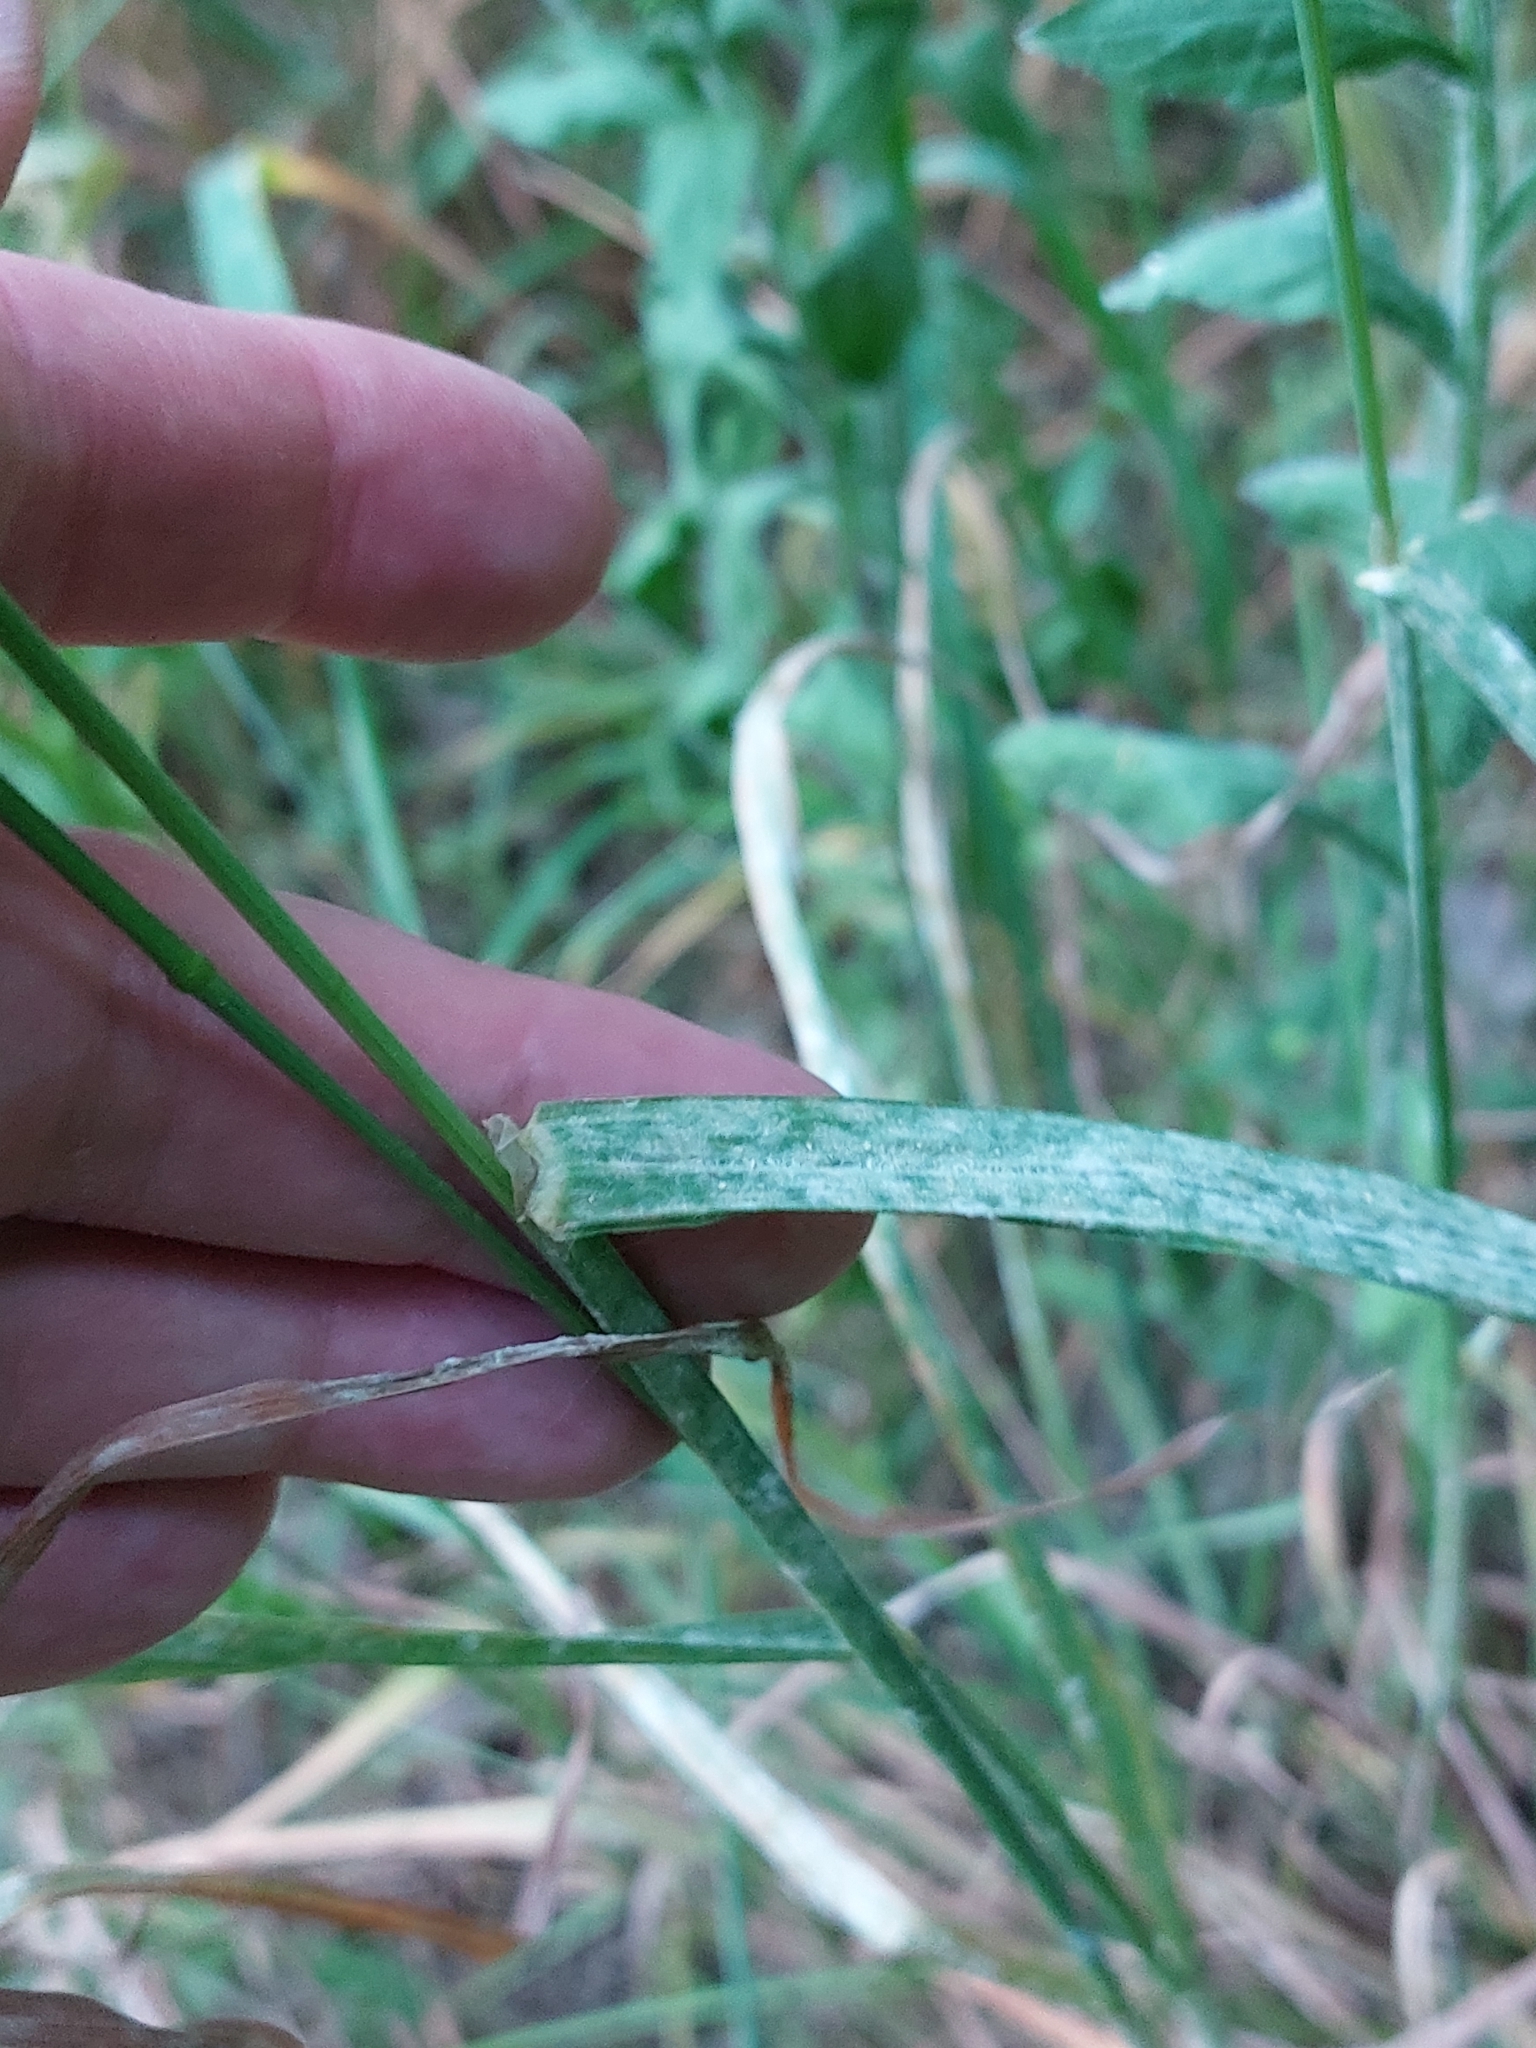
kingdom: Plantae
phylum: Tracheophyta
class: Liliopsida
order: Poales
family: Poaceae
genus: Dactylis
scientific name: Dactylis glomerata
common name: Orchardgrass
